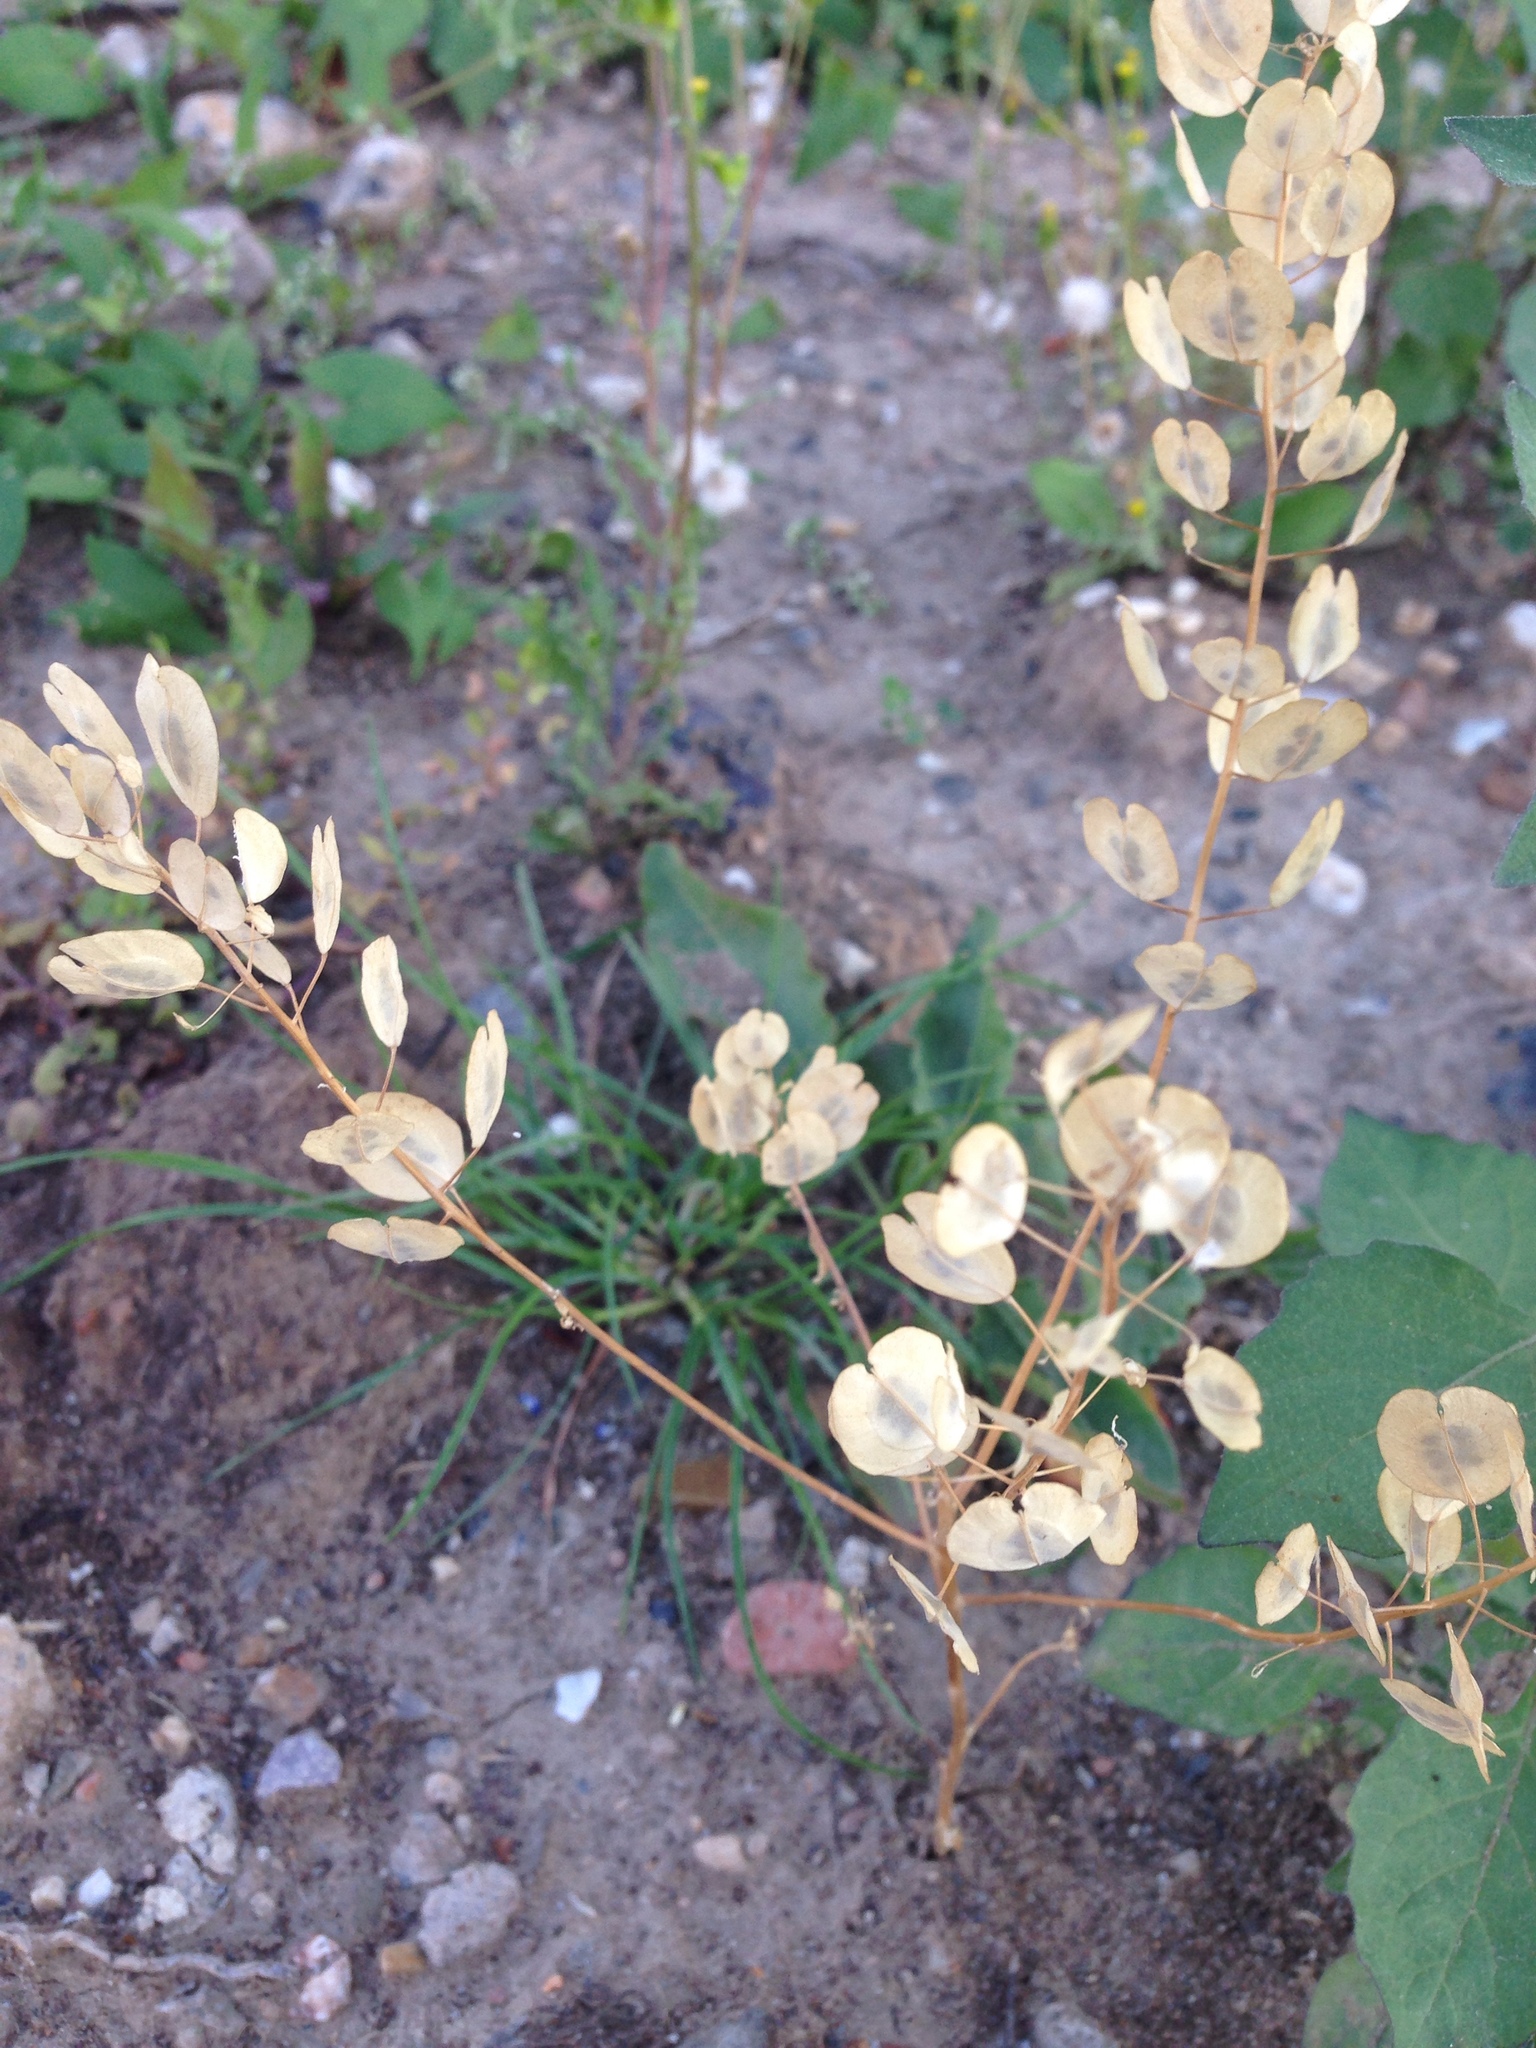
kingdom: Plantae
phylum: Tracheophyta
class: Magnoliopsida
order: Brassicales
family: Brassicaceae
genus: Thlaspi
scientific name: Thlaspi arvense
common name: Field pennycress
